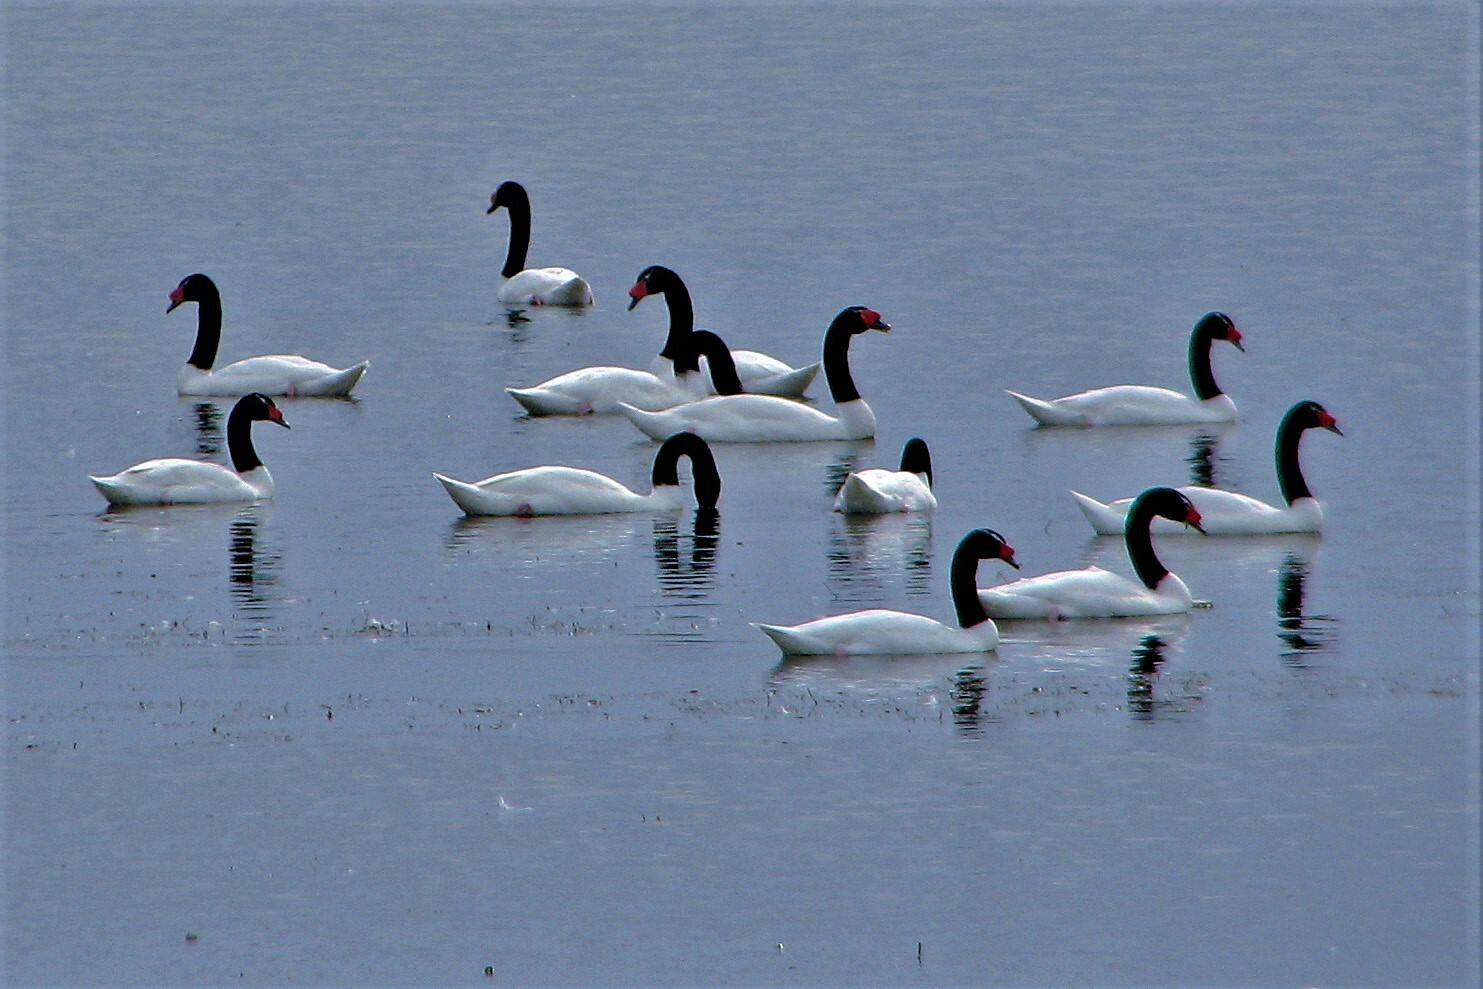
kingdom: Animalia
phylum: Chordata
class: Aves
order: Anseriformes
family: Anatidae
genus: Cygnus
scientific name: Cygnus melancoryphus
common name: Black-necked swan
